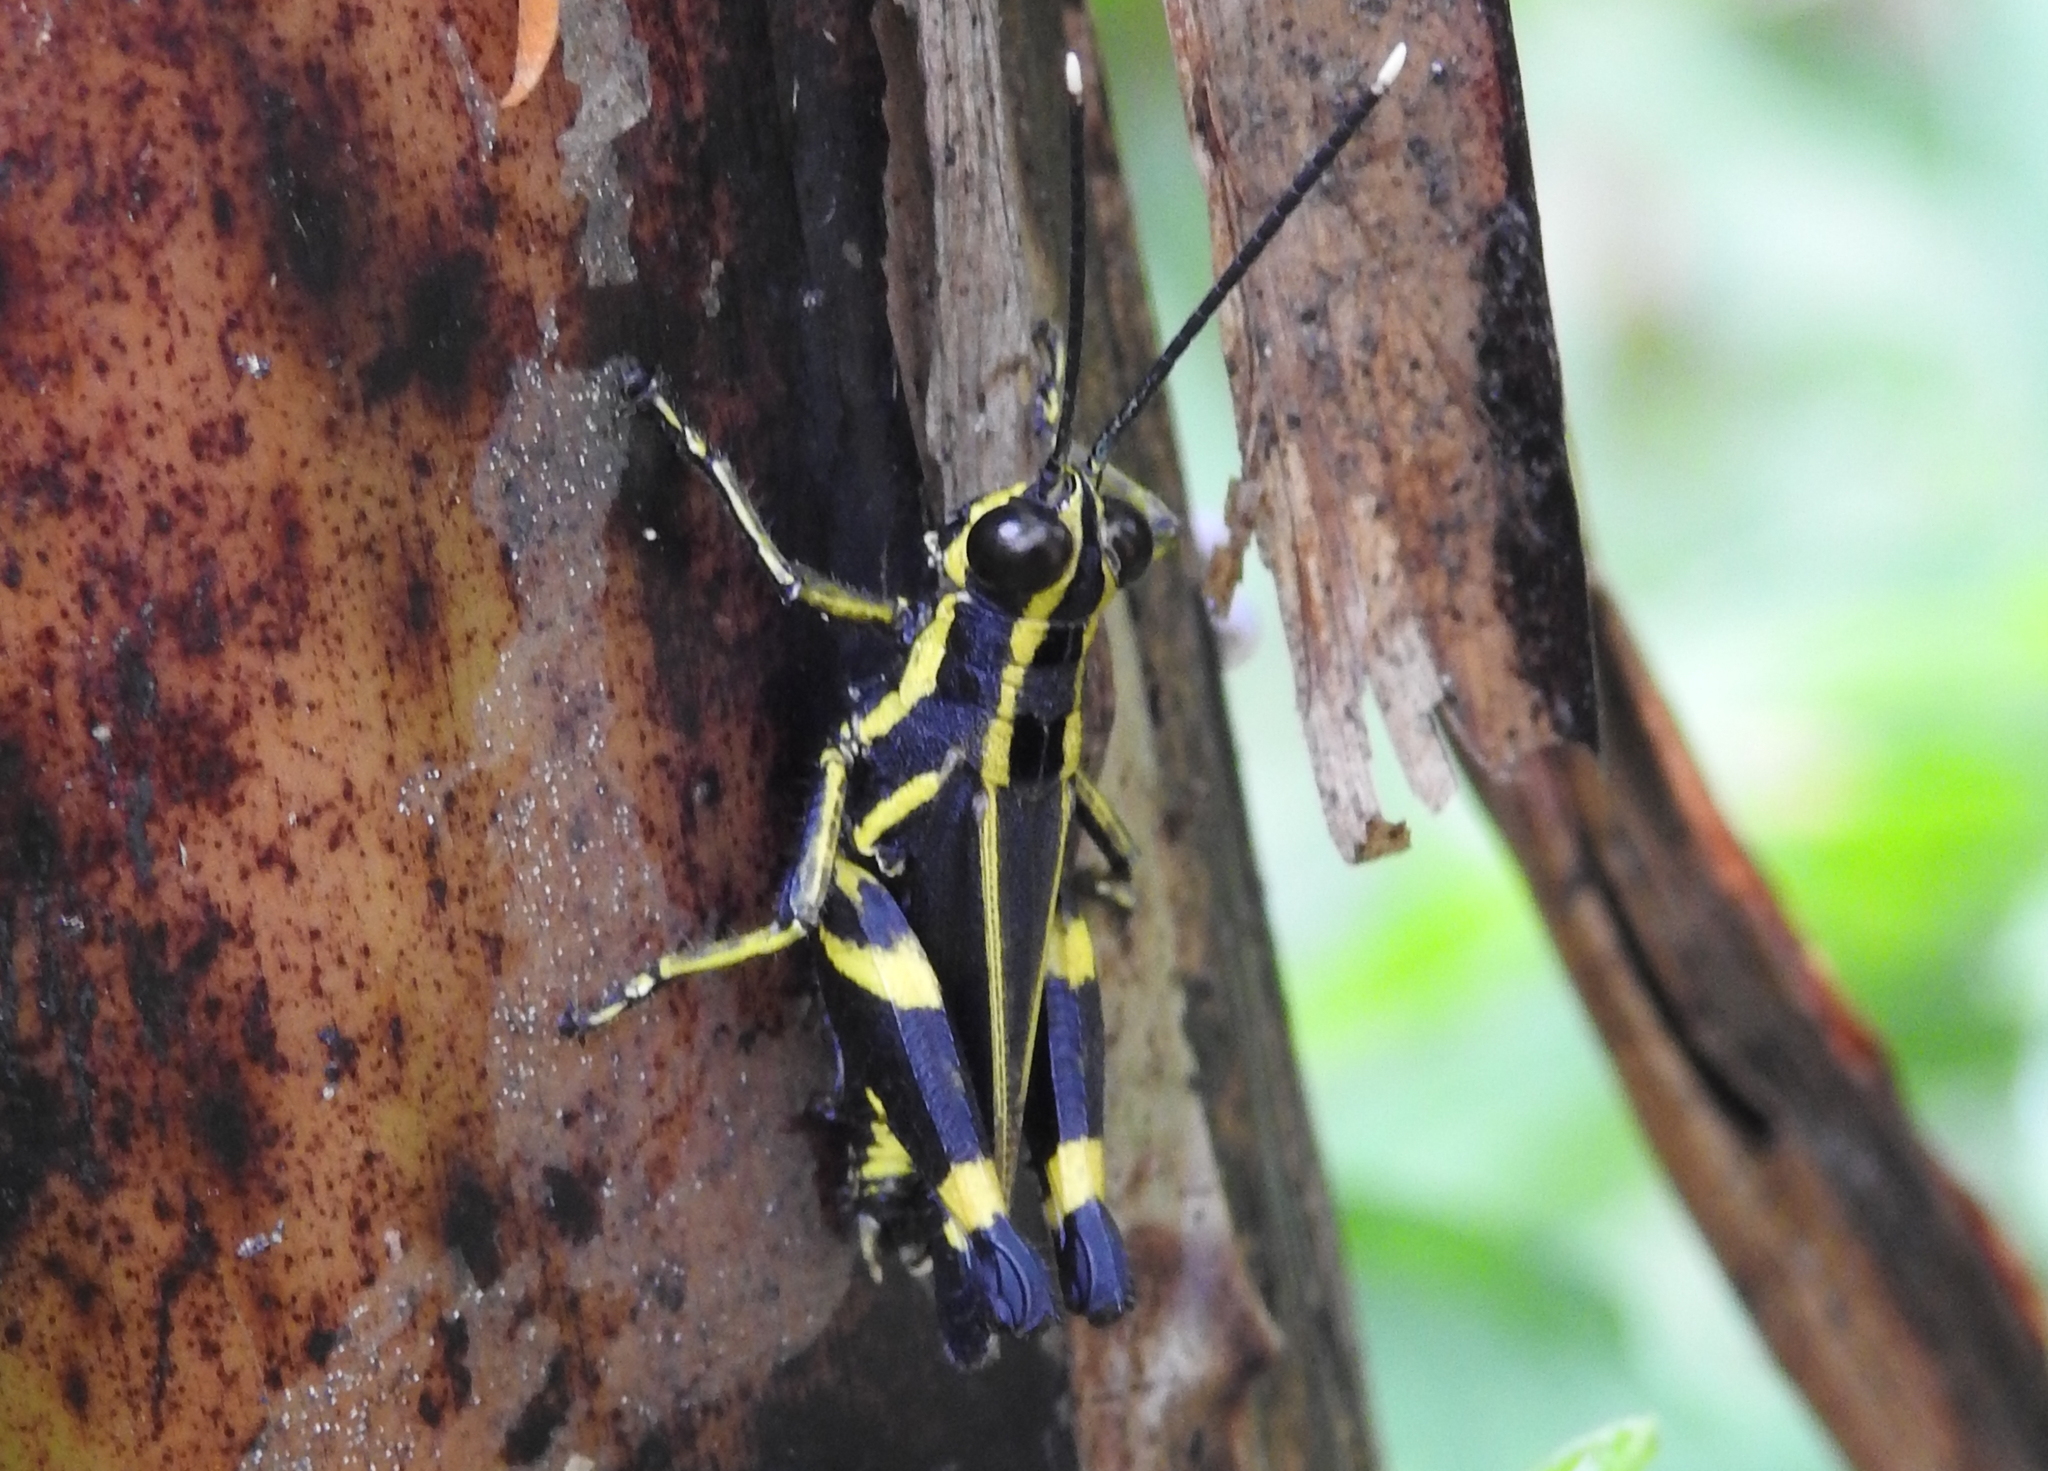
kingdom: Animalia
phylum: Arthropoda
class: Insecta
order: Orthoptera
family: Acrididae
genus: Traulia
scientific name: Traulia azureipennis
